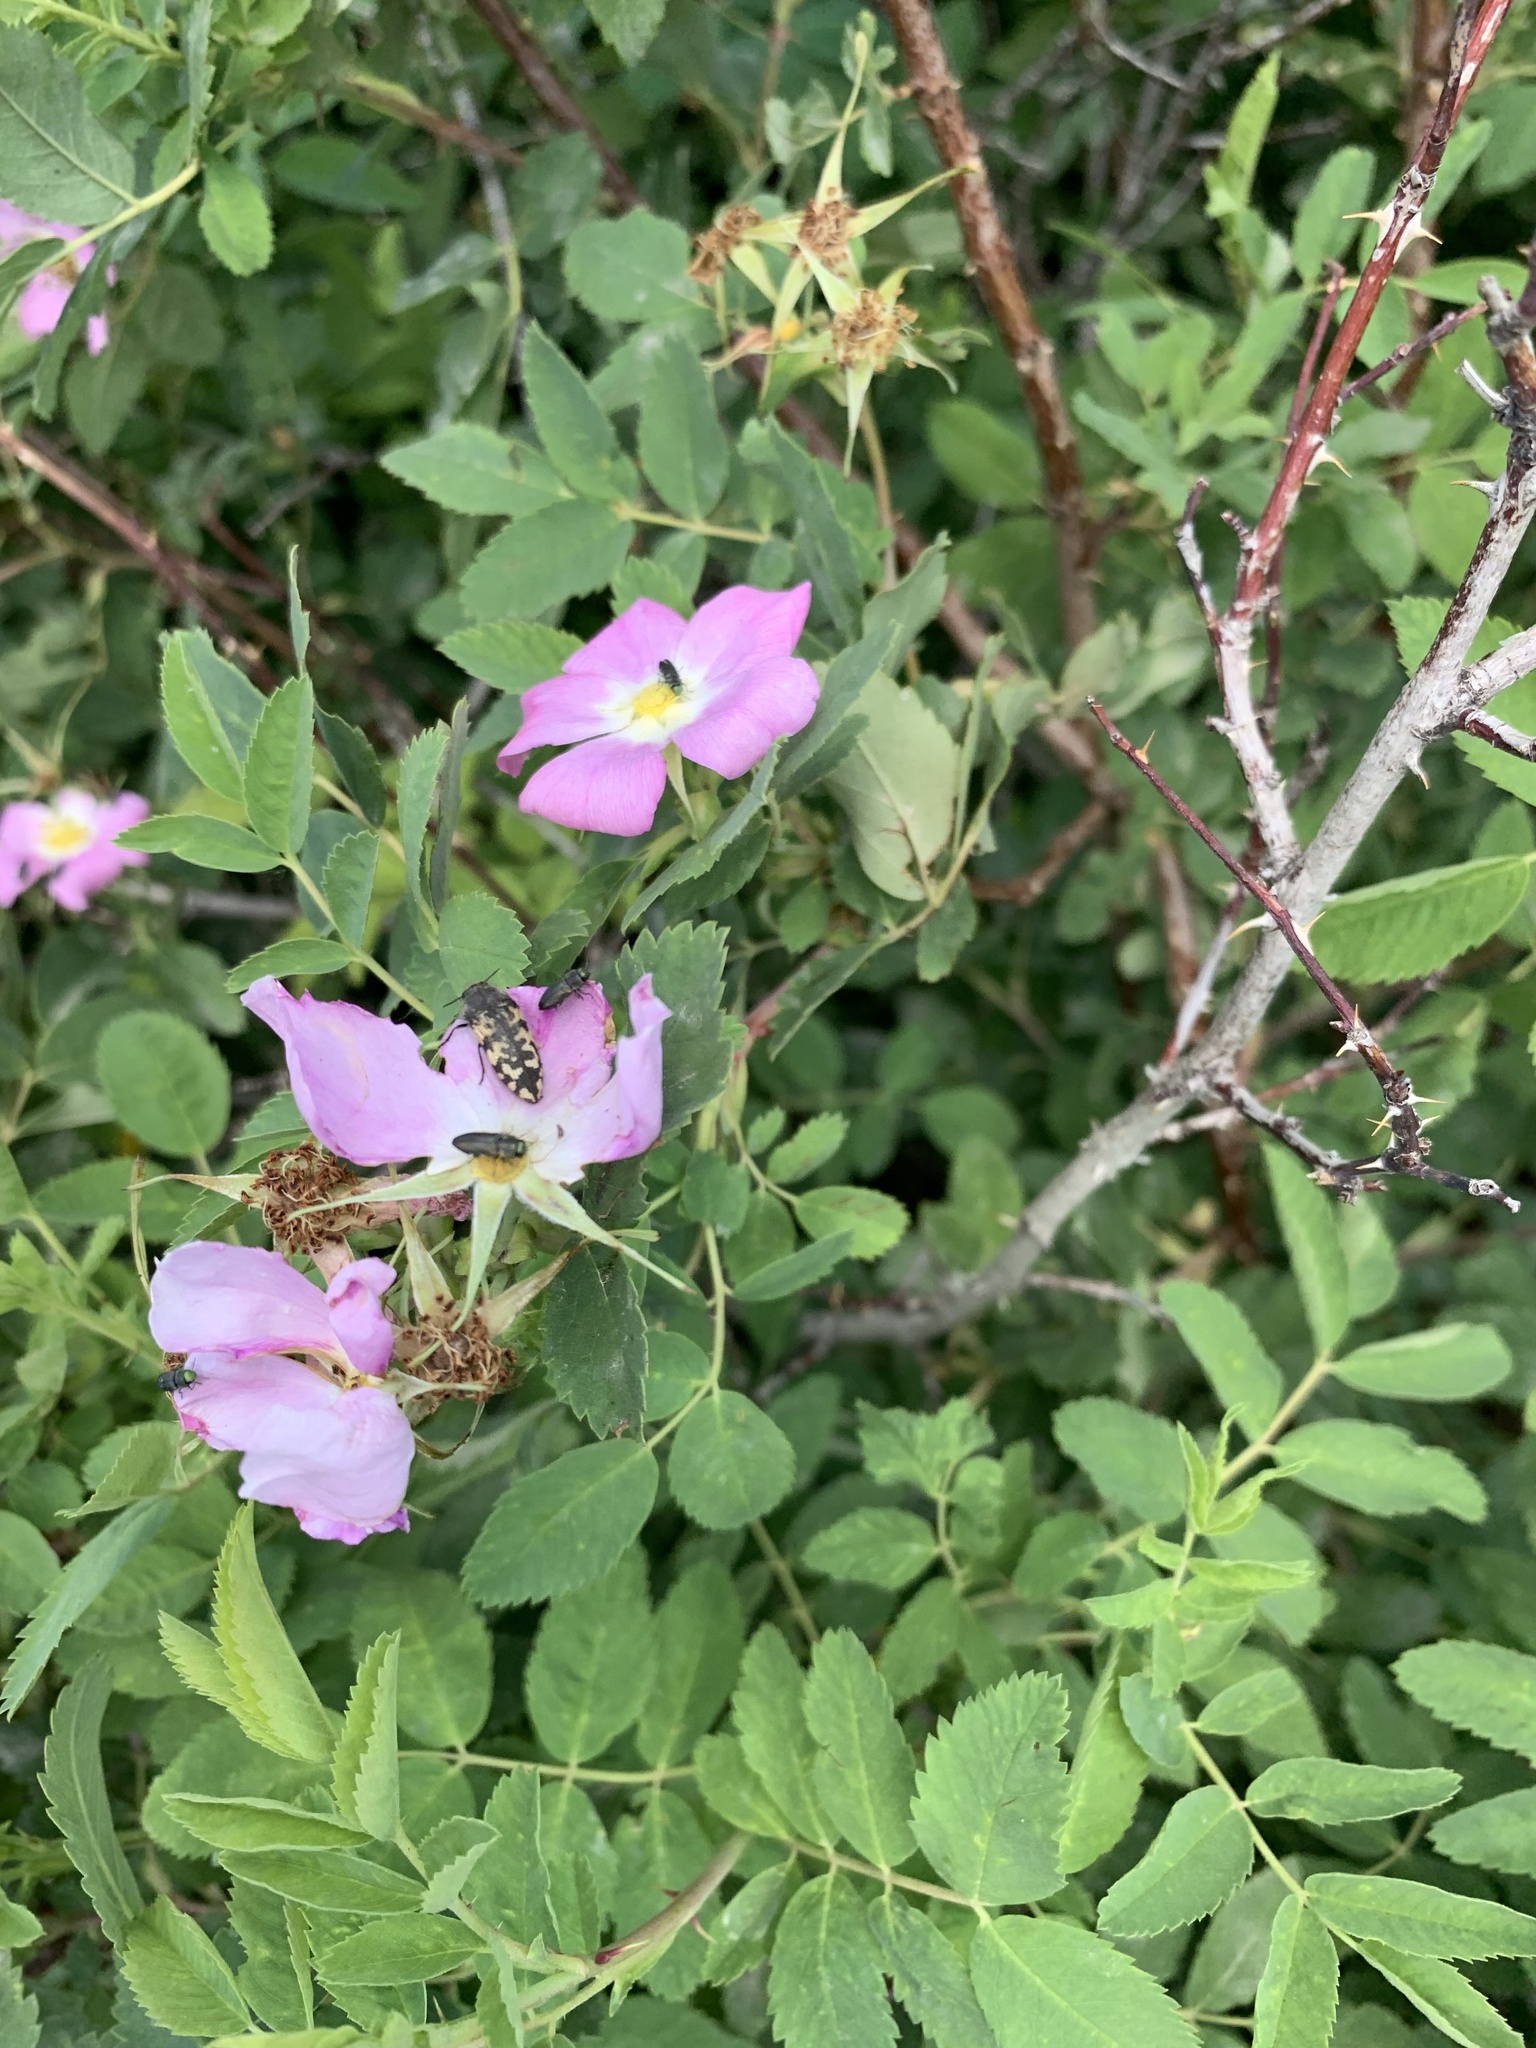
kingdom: Animalia
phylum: Arthropoda
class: Insecta
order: Coleoptera
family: Buprestidae
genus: Acmaeodera
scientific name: Acmaeodera diffusa
